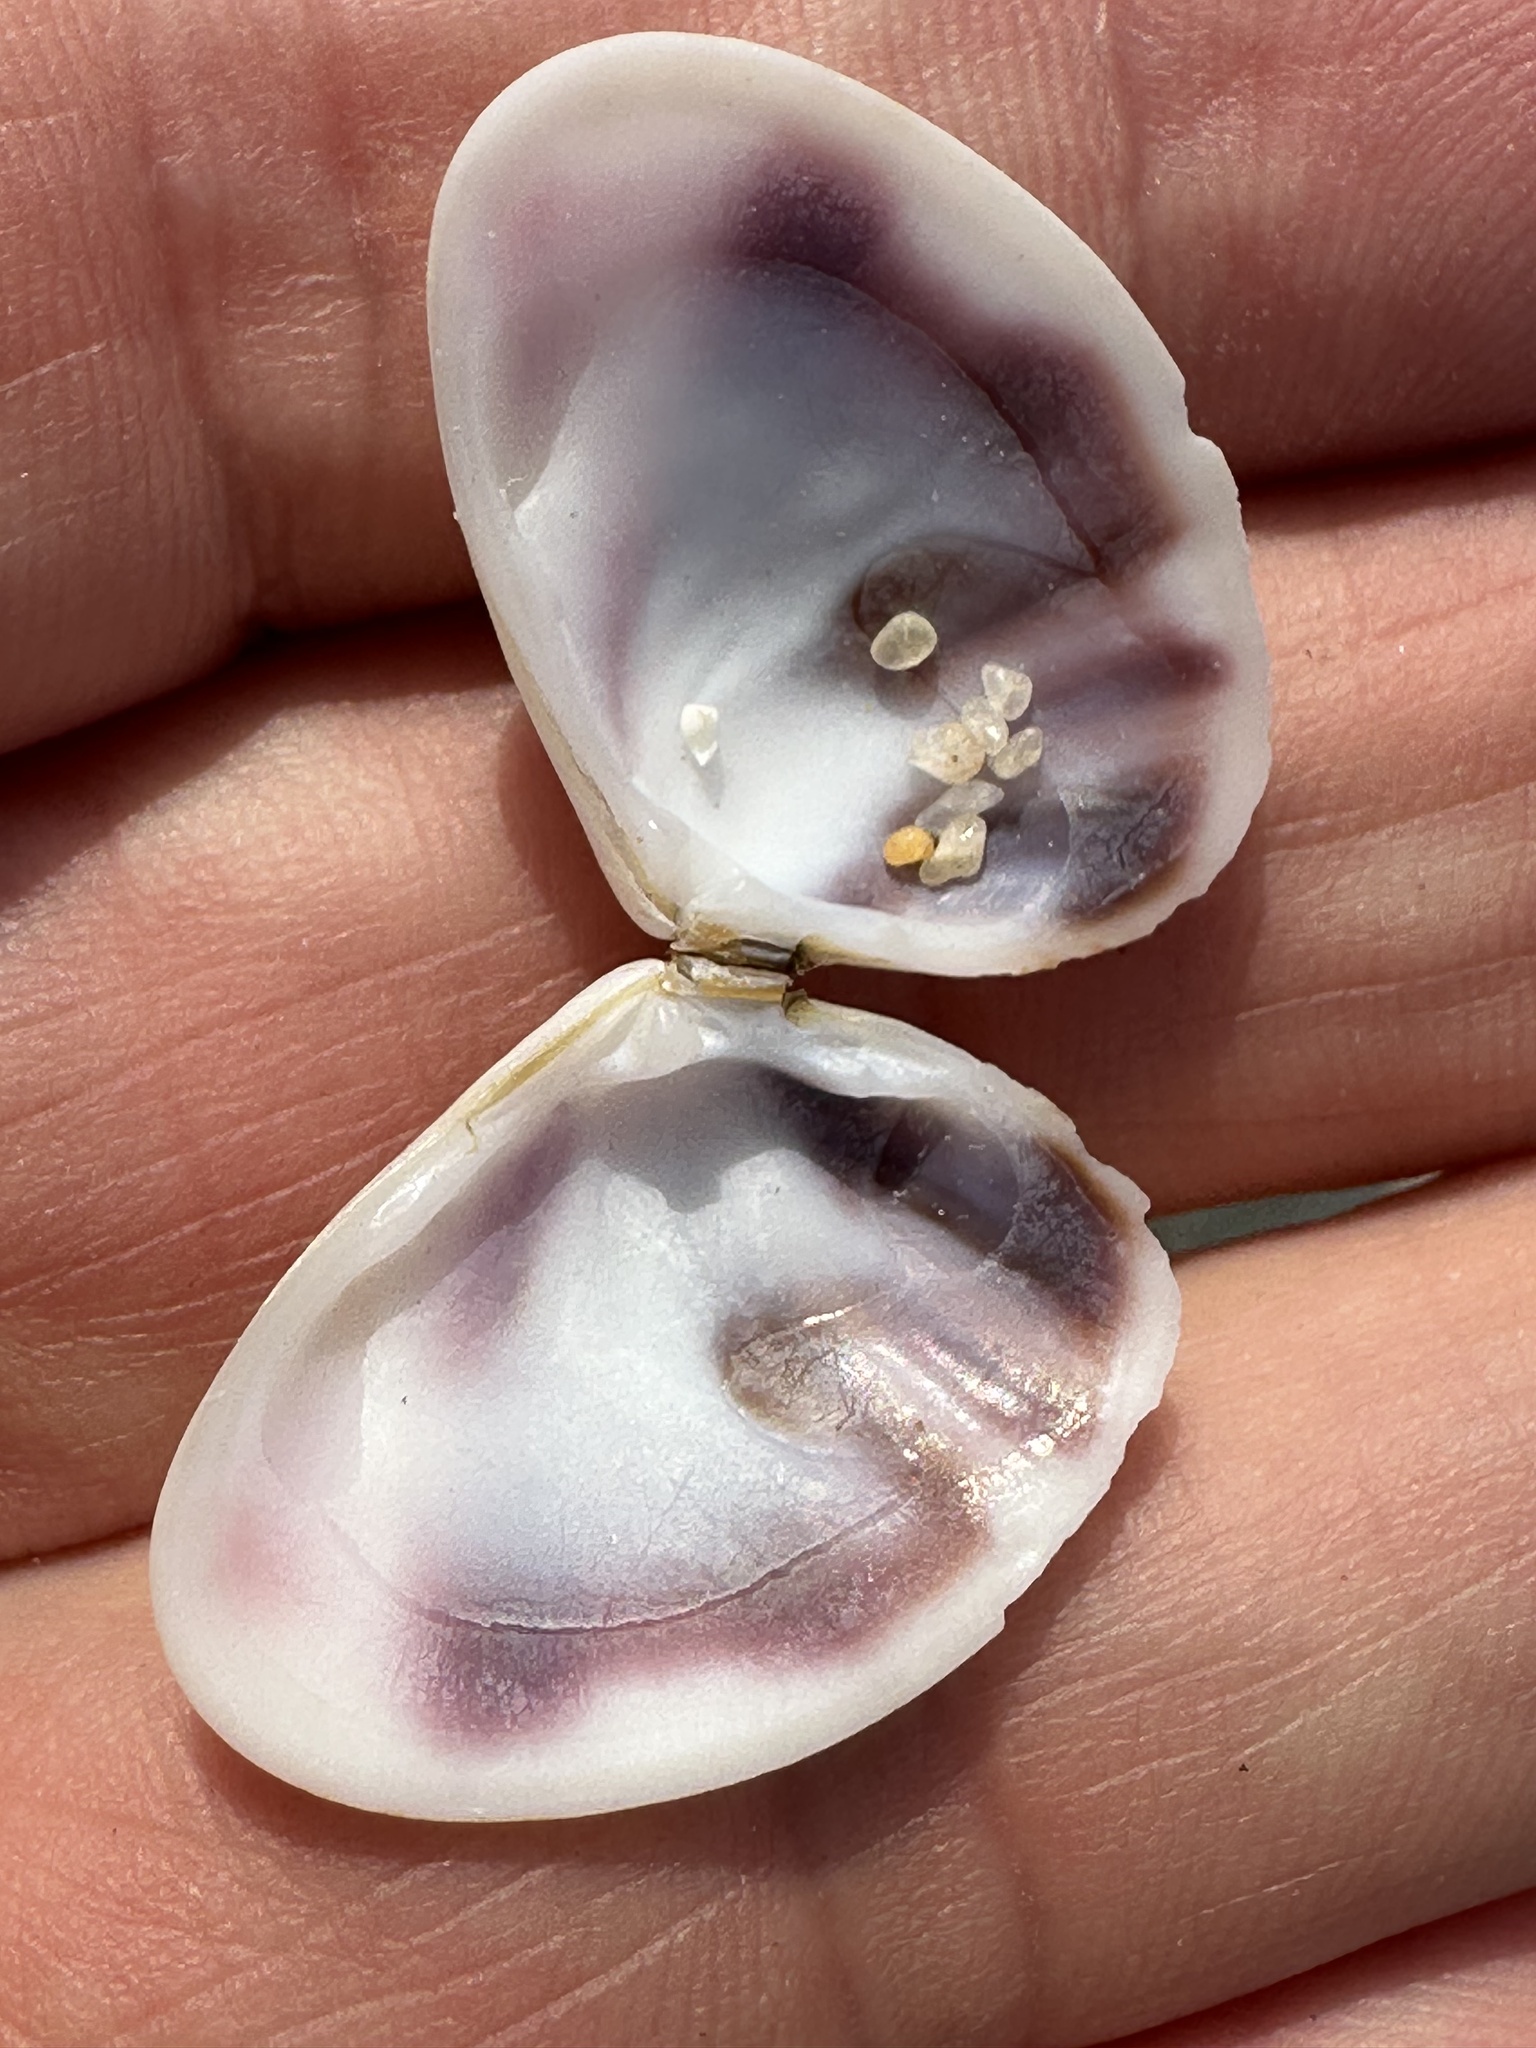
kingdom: Animalia
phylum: Mollusca
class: Bivalvia
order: Cardiida
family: Donacidae
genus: Donax
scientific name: Donax faba
